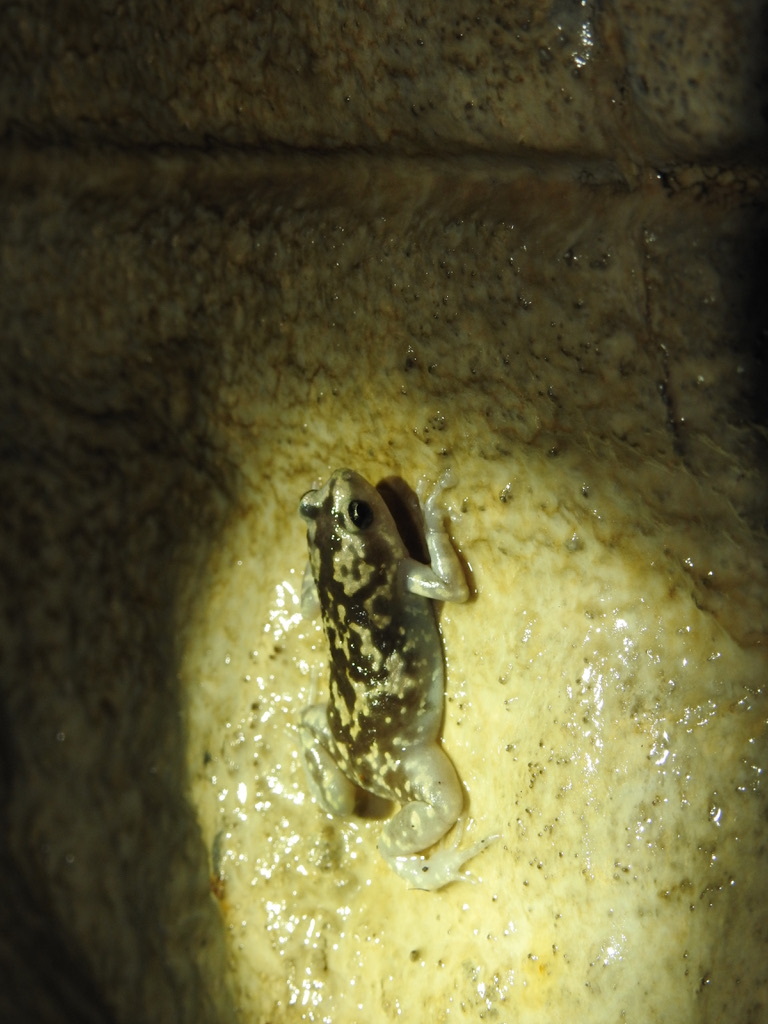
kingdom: Animalia
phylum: Chordata
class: Amphibia
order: Anura
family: Microhylidae
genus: Uperodon
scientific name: Uperodon variegatus
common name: Eluru dot frog
